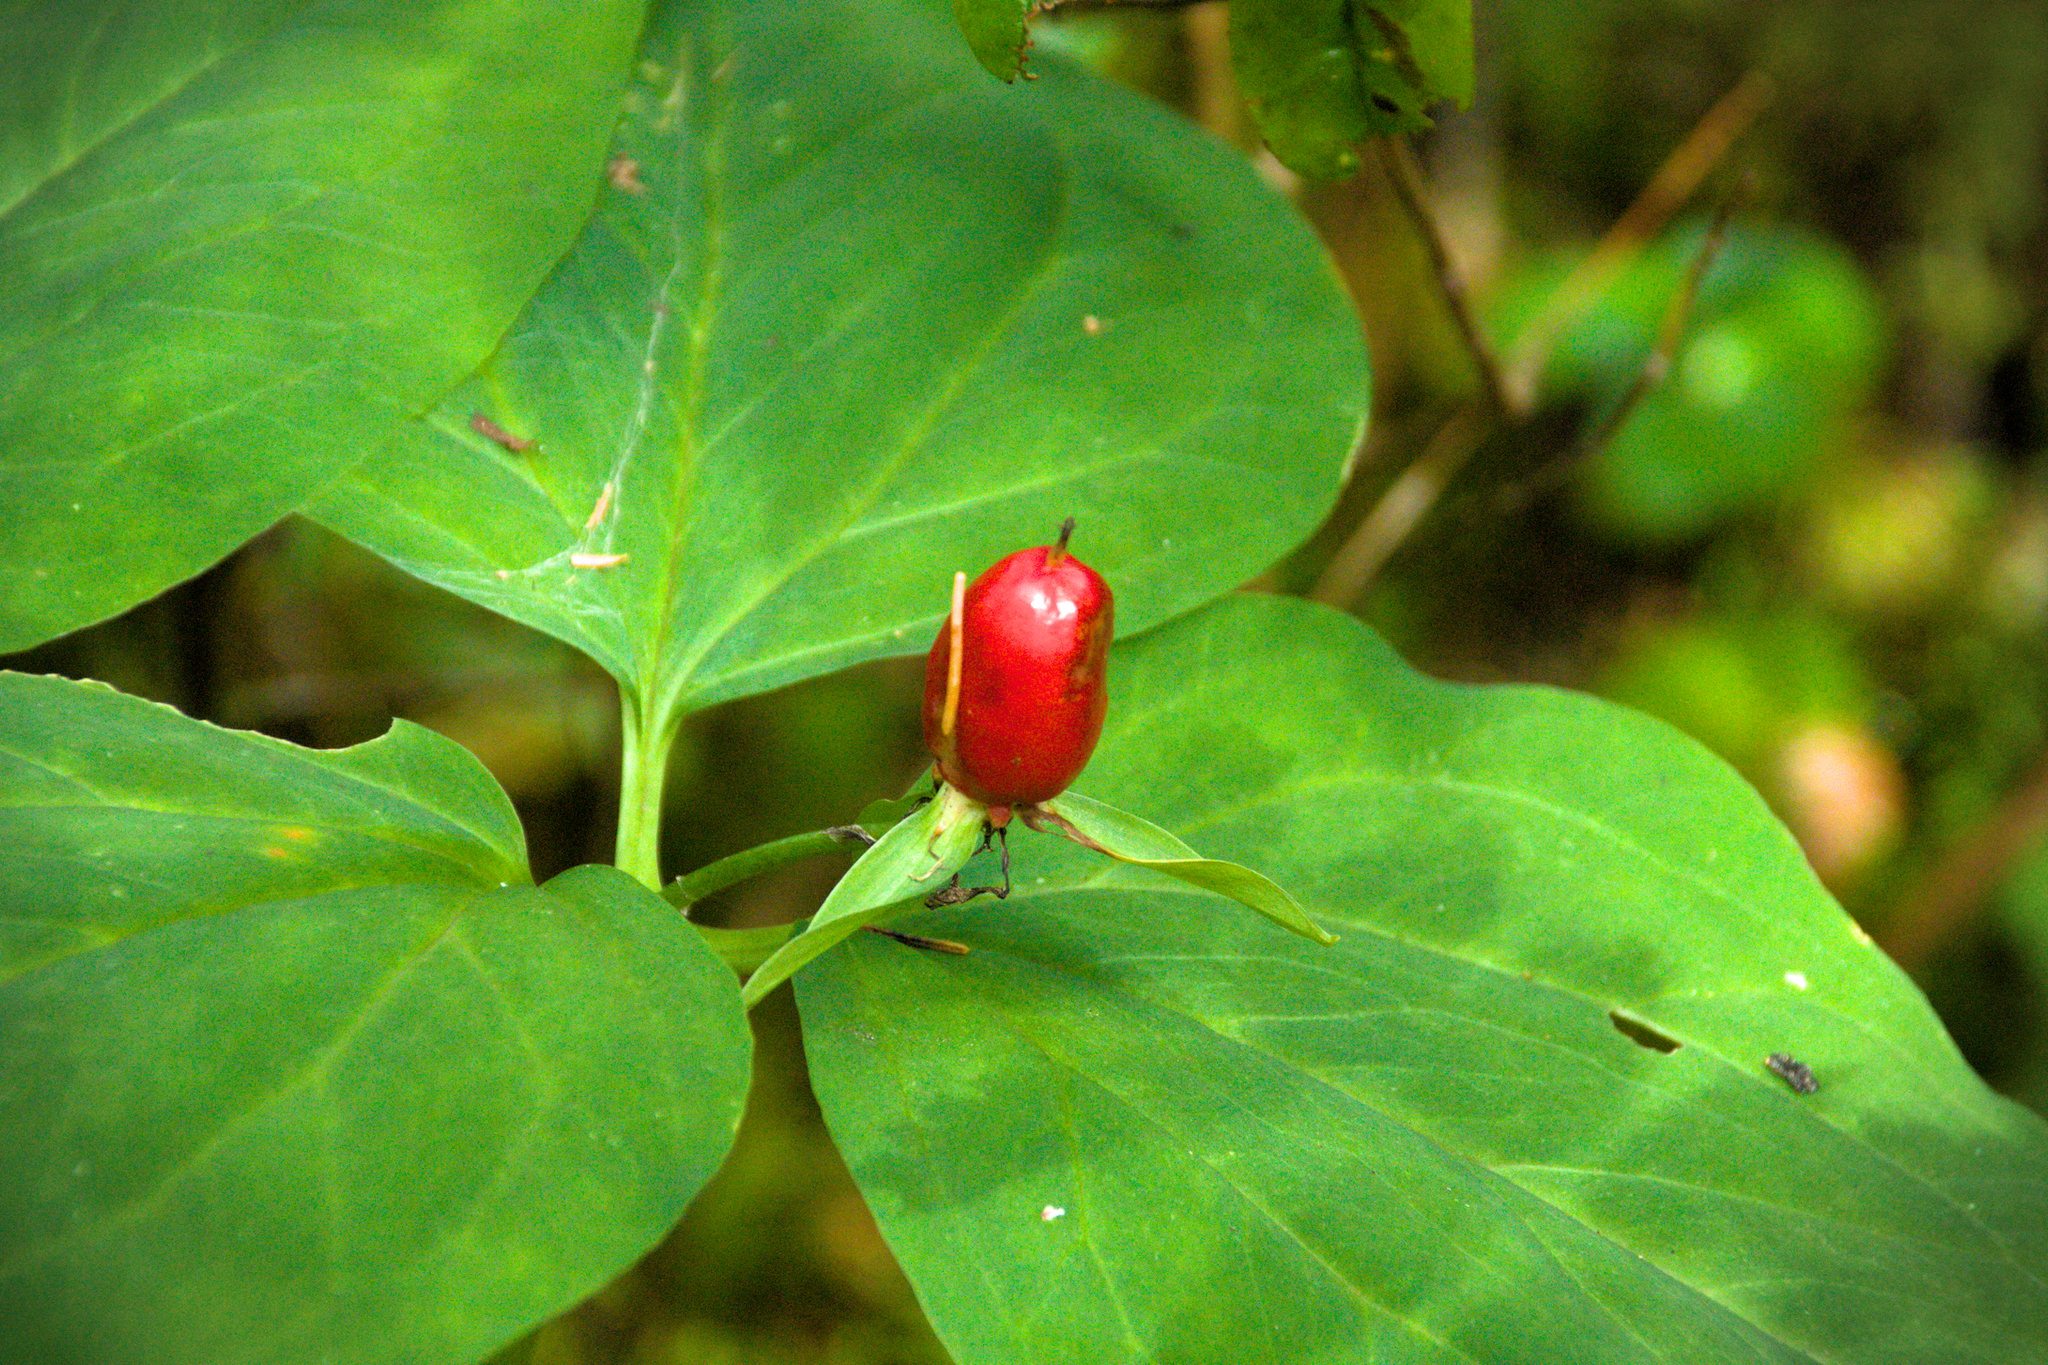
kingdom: Plantae
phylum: Tracheophyta
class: Liliopsida
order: Liliales
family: Melanthiaceae
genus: Trillium
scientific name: Trillium undulatum
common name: Paint trillium
